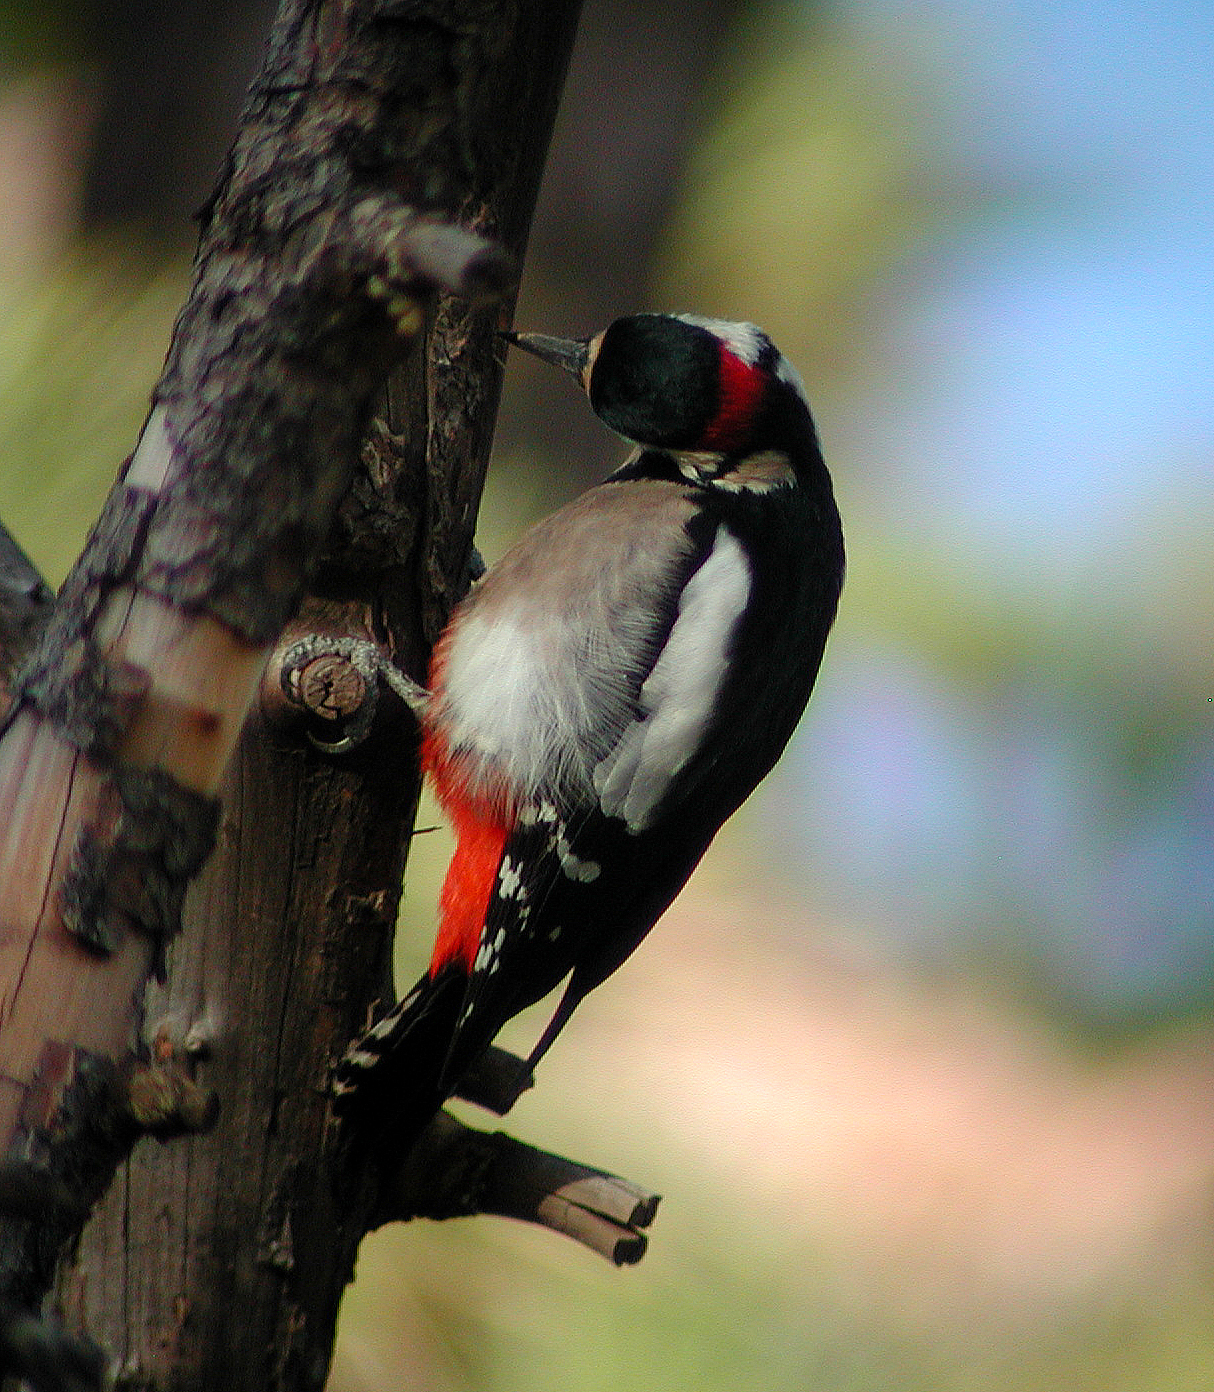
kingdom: Animalia
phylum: Chordata
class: Aves
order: Piciformes
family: Picidae
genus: Dendrocopos
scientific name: Dendrocopos major
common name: Great spotted woodpecker
